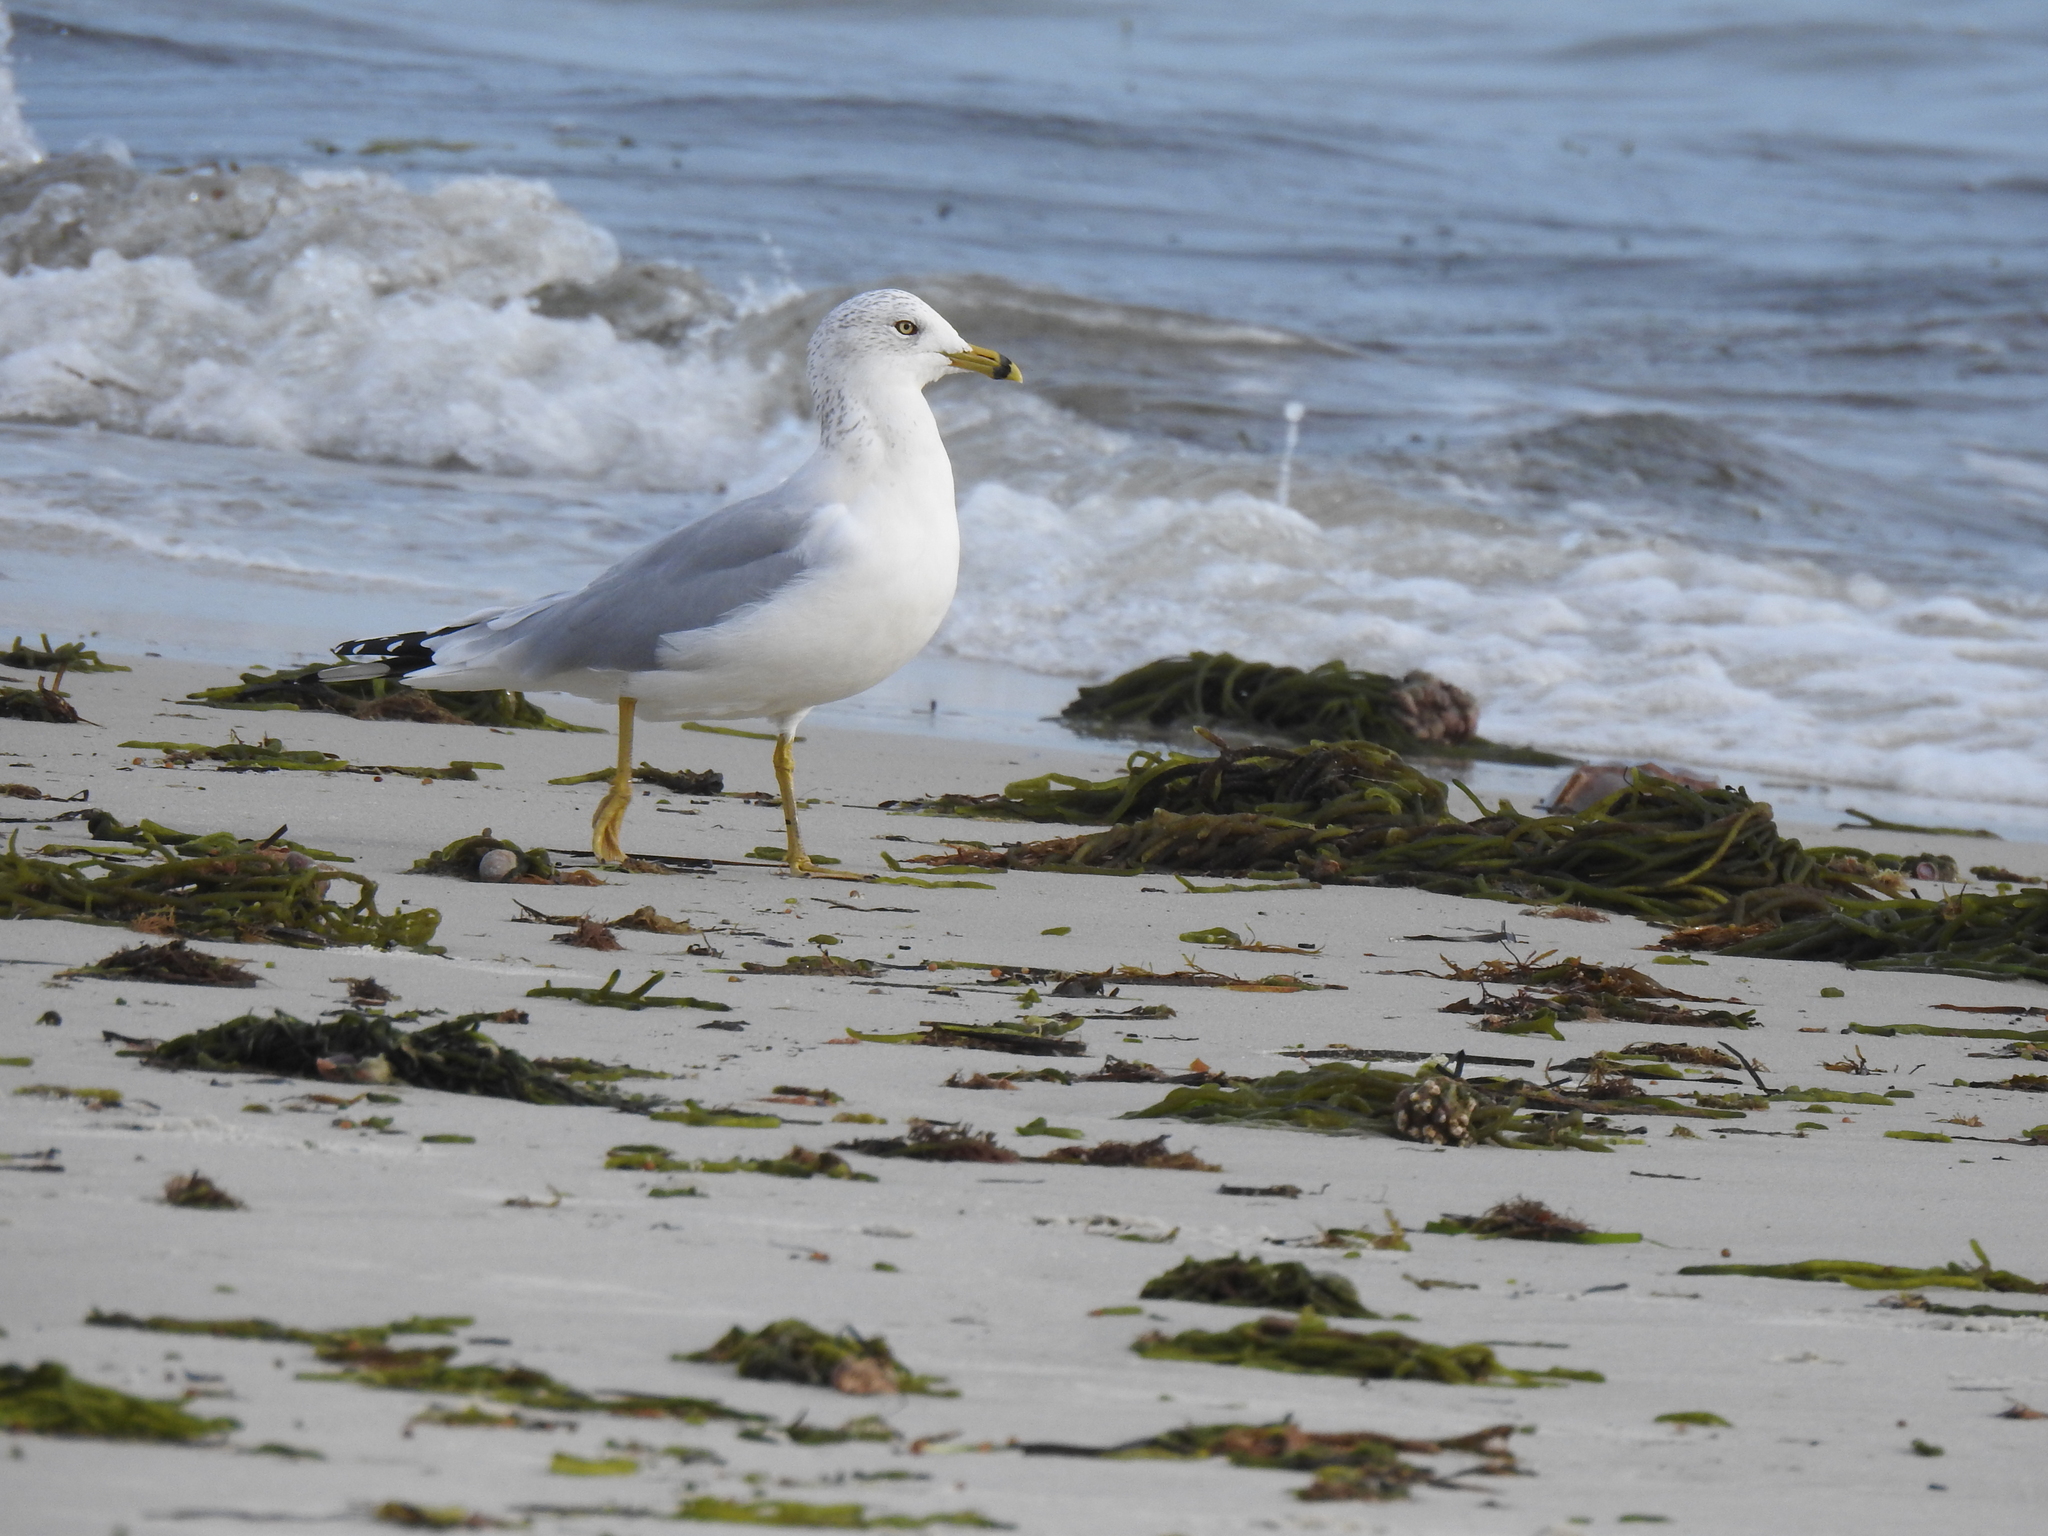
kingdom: Animalia
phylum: Chordata
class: Aves
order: Charadriiformes
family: Laridae
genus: Larus
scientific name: Larus delawarensis
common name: Ring-billed gull
